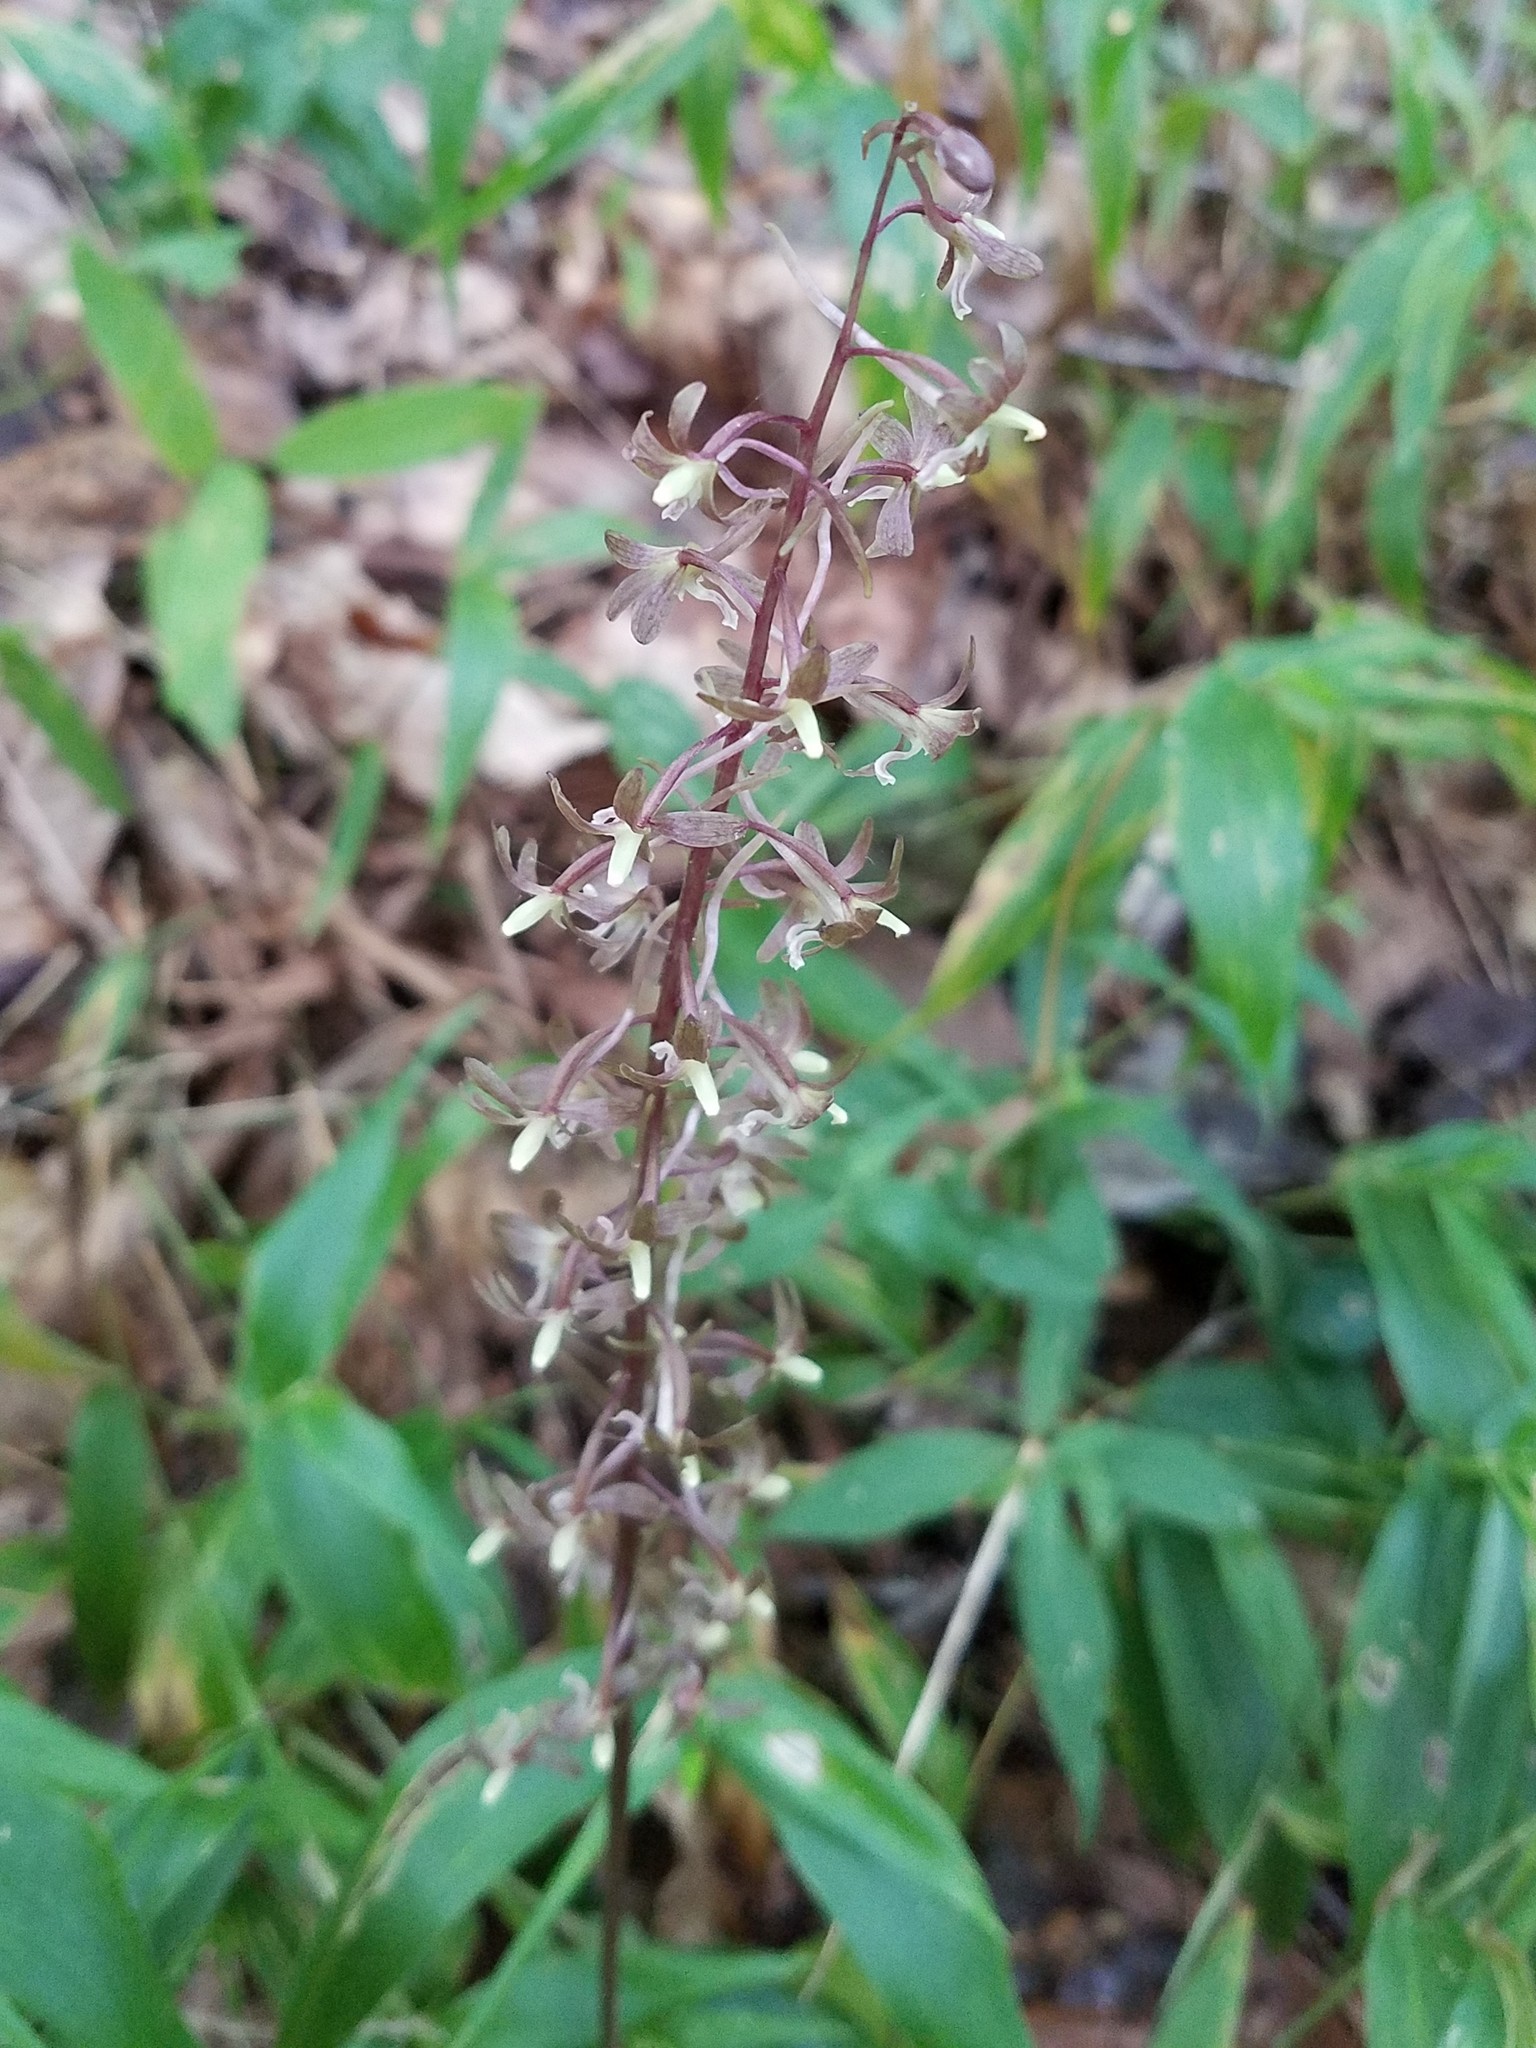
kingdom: Plantae
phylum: Tracheophyta
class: Liliopsida
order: Asparagales
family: Orchidaceae
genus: Tipularia
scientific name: Tipularia discolor
